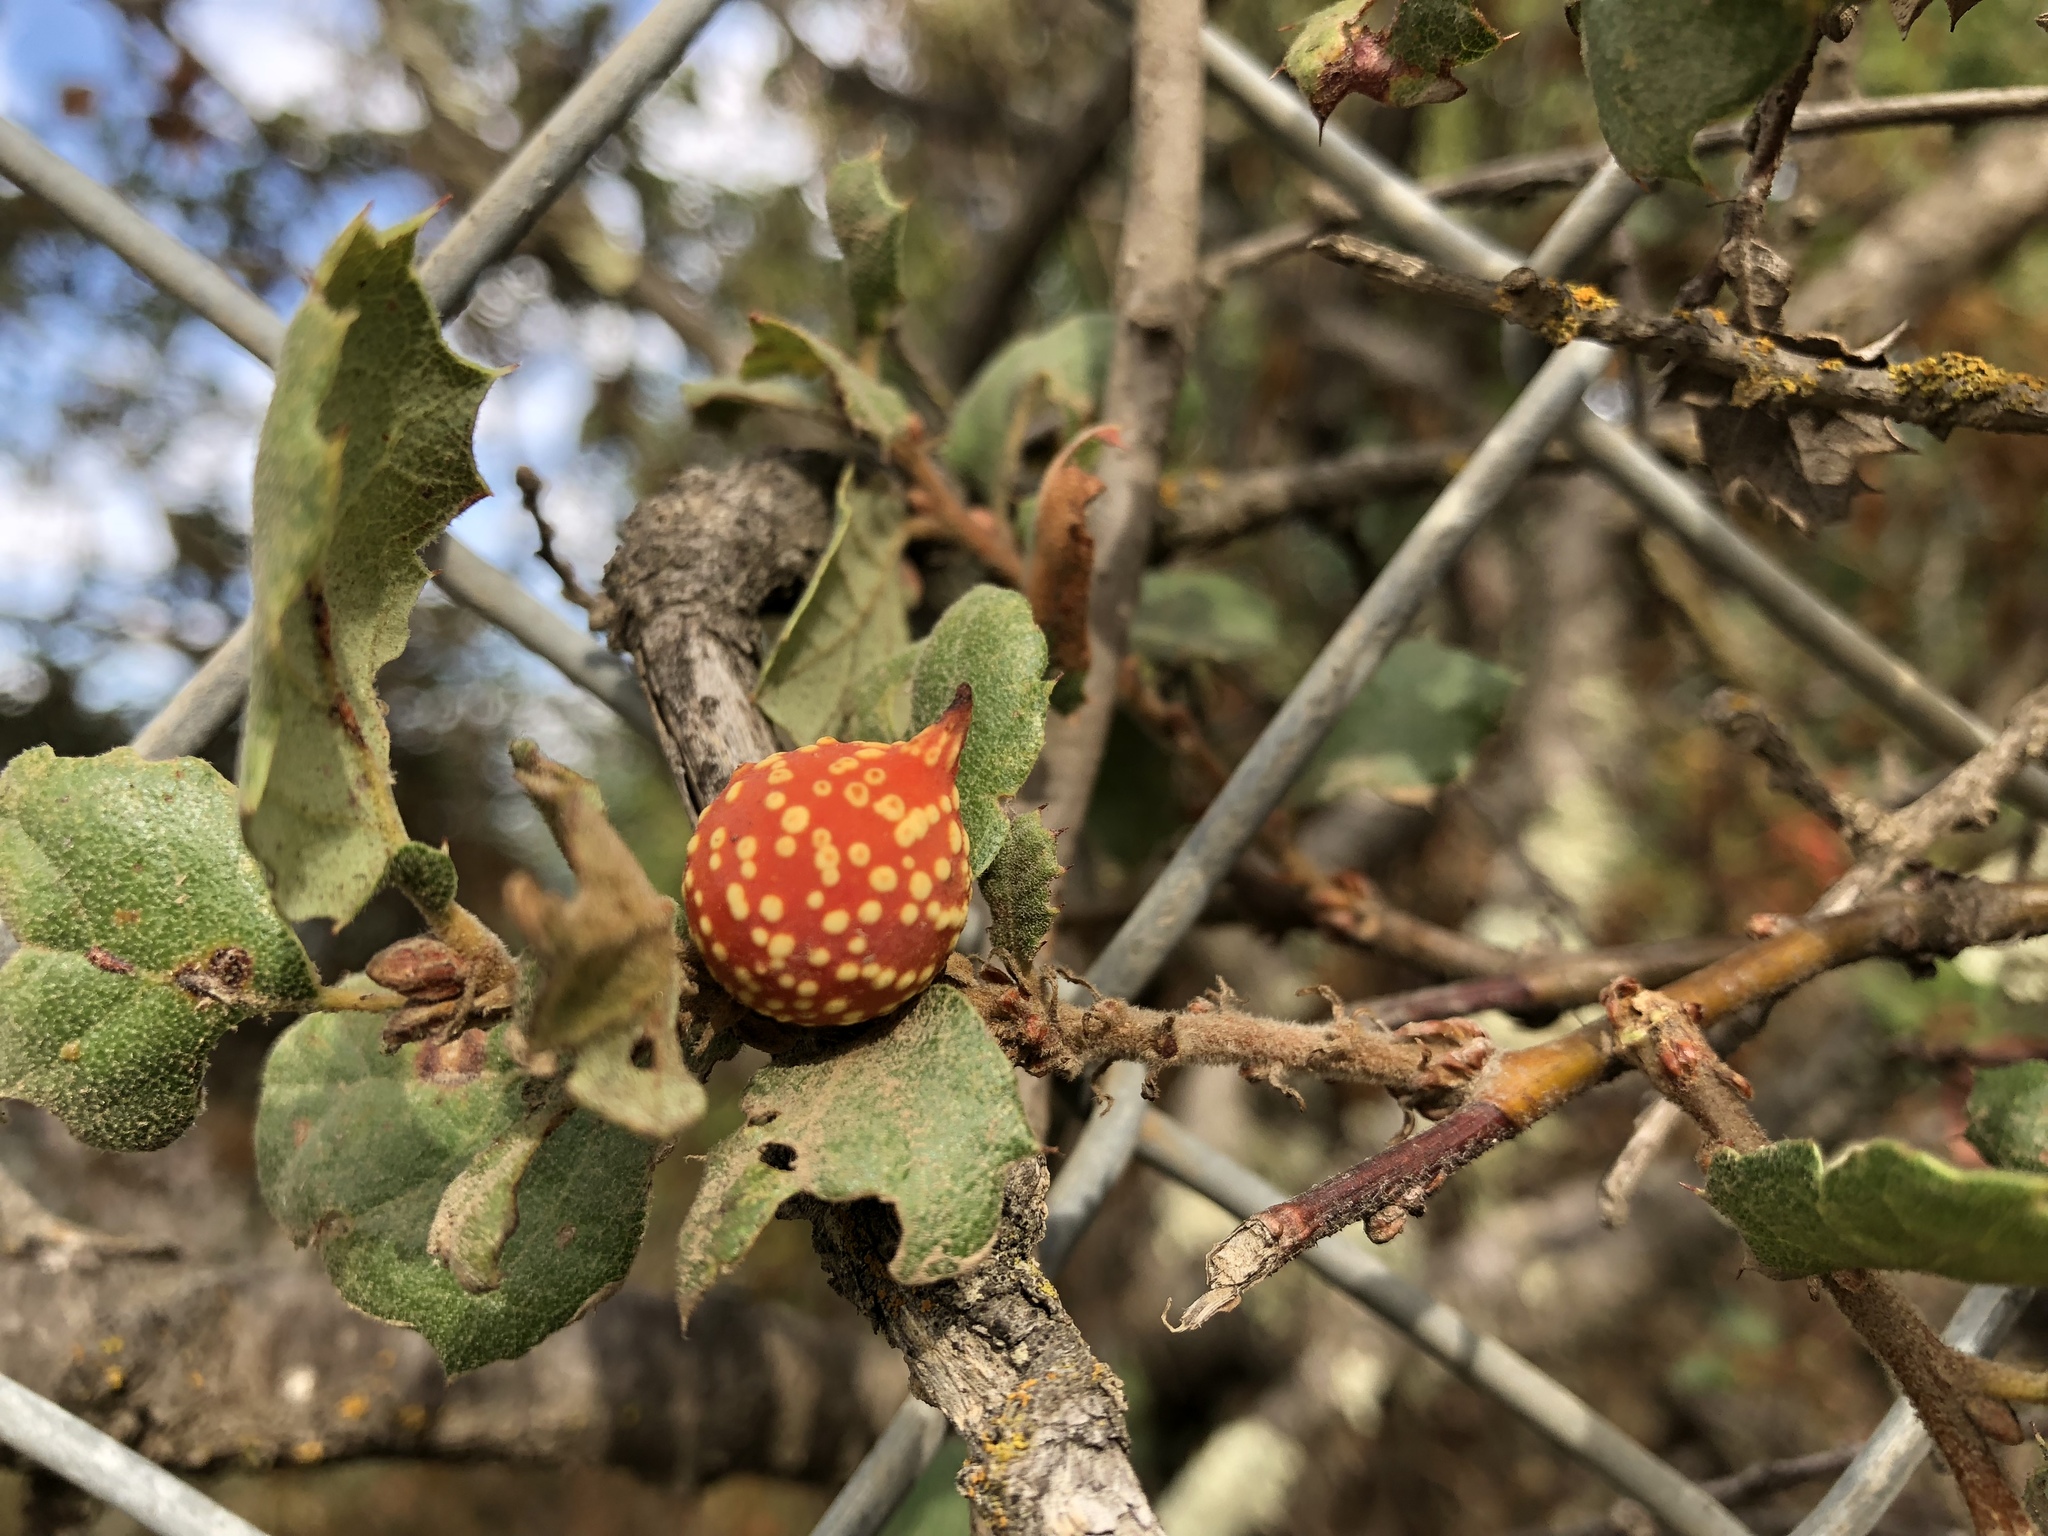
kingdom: Animalia
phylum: Arthropoda
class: Insecta
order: Hymenoptera
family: Cynipidae
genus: Burnettweldia
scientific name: Burnettweldia
